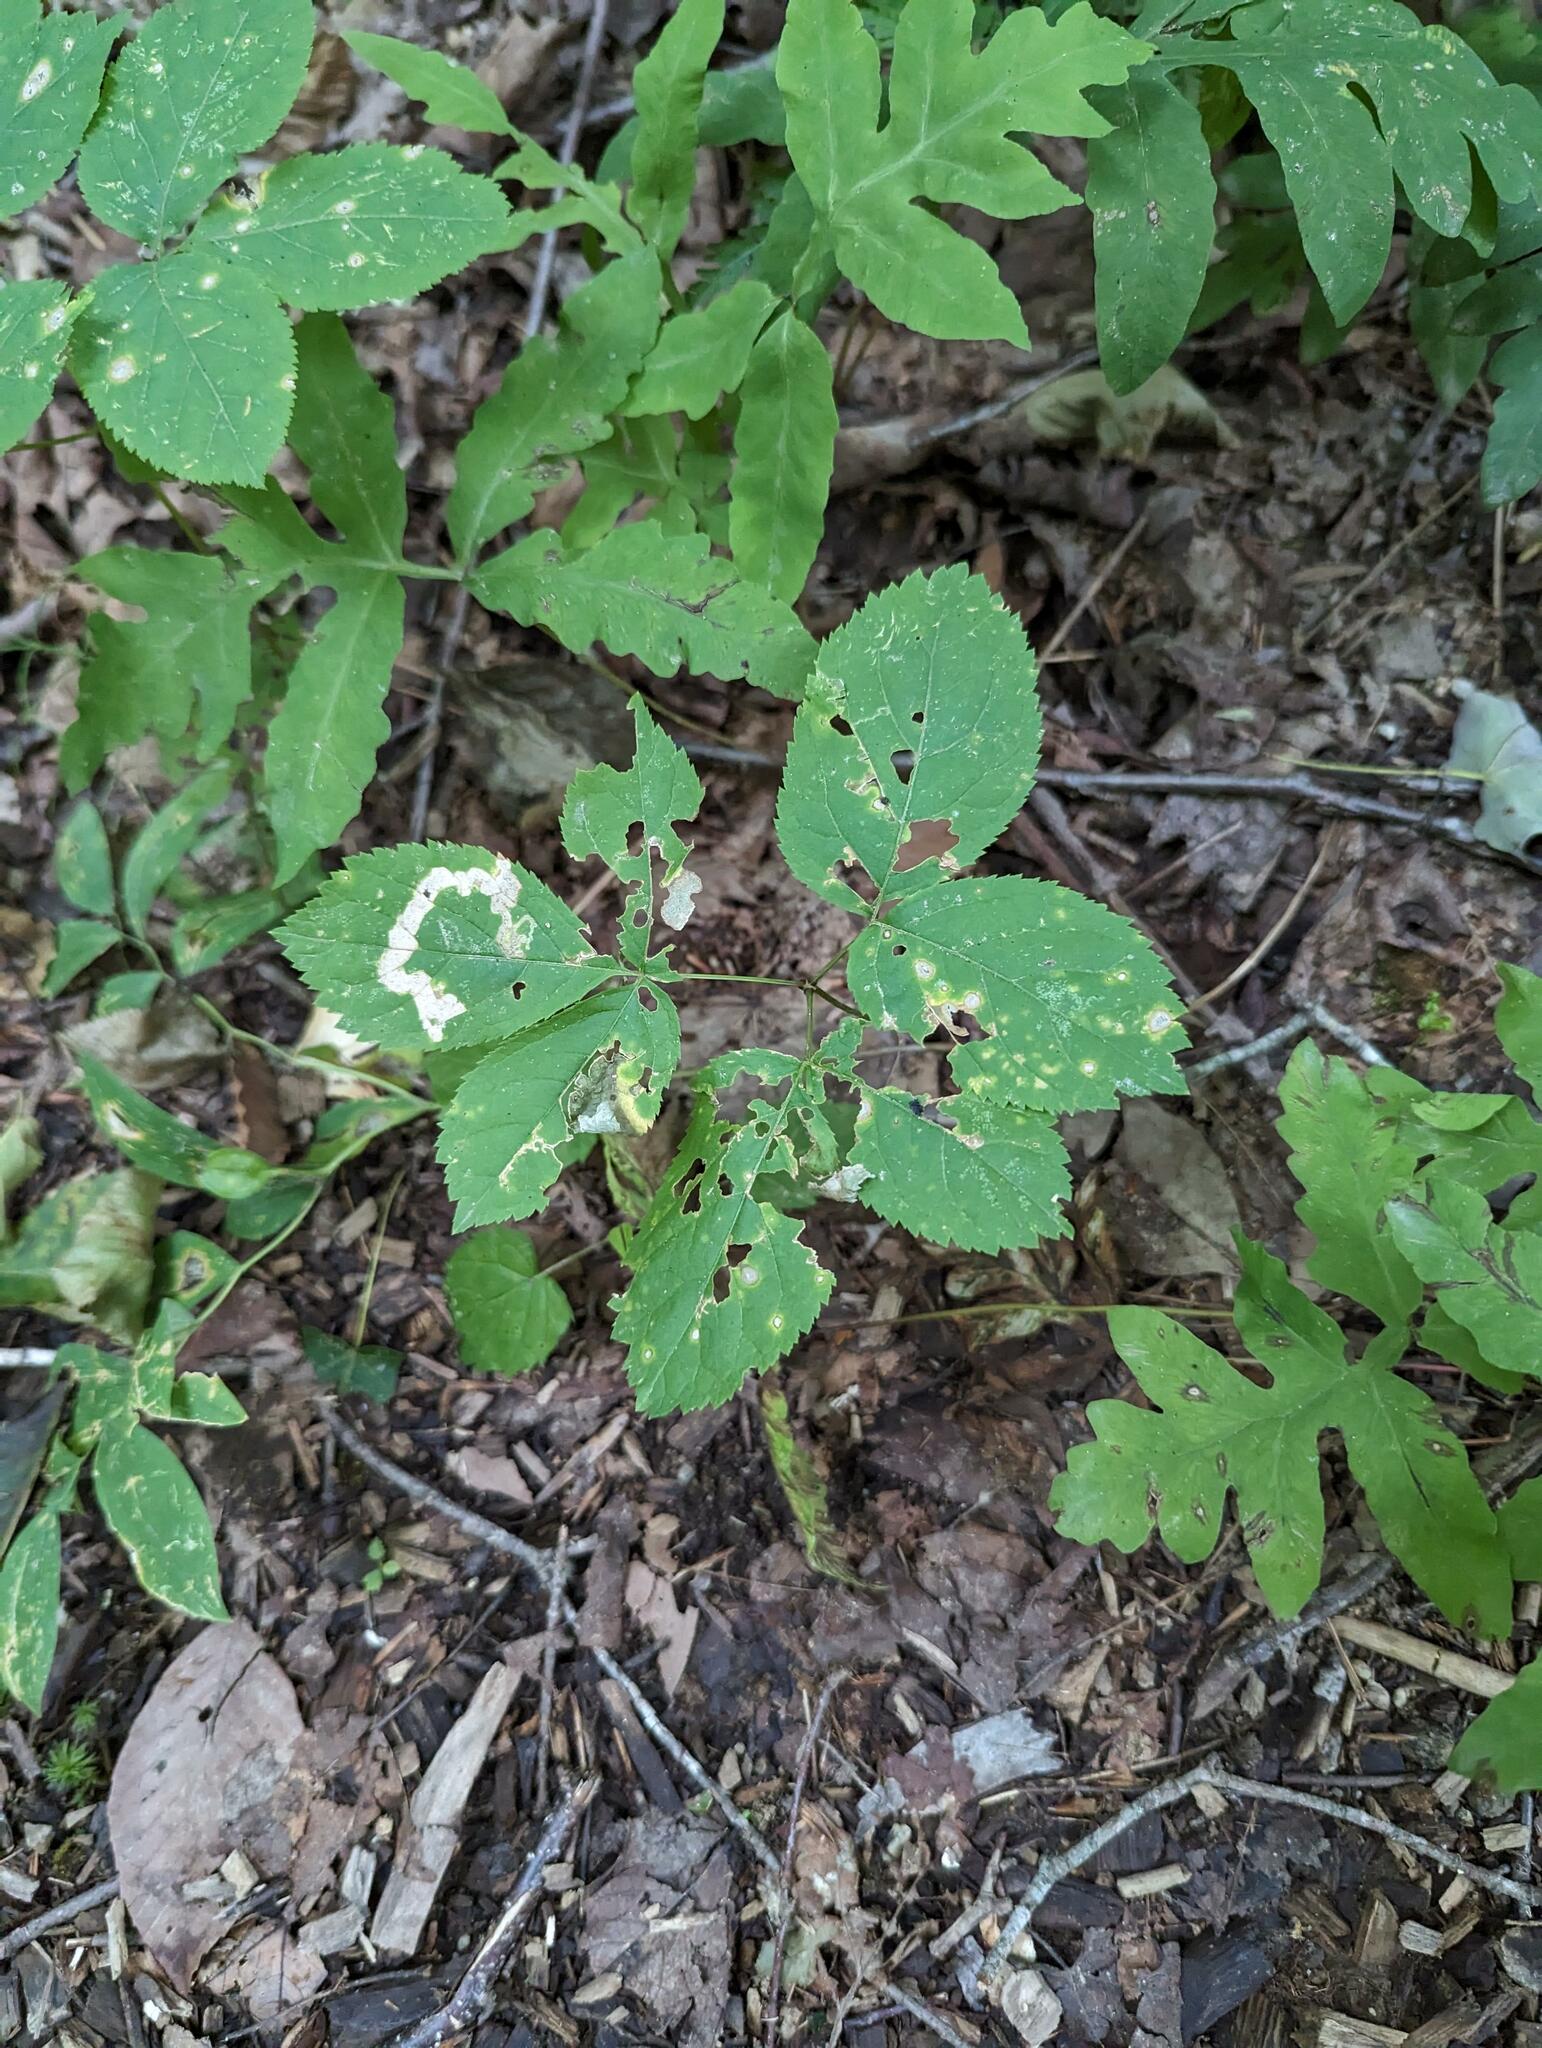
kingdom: Plantae
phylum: Tracheophyta
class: Magnoliopsida
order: Apiales
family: Araliaceae
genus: Aralia
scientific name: Aralia nudicaulis
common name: Wild sarsaparilla
